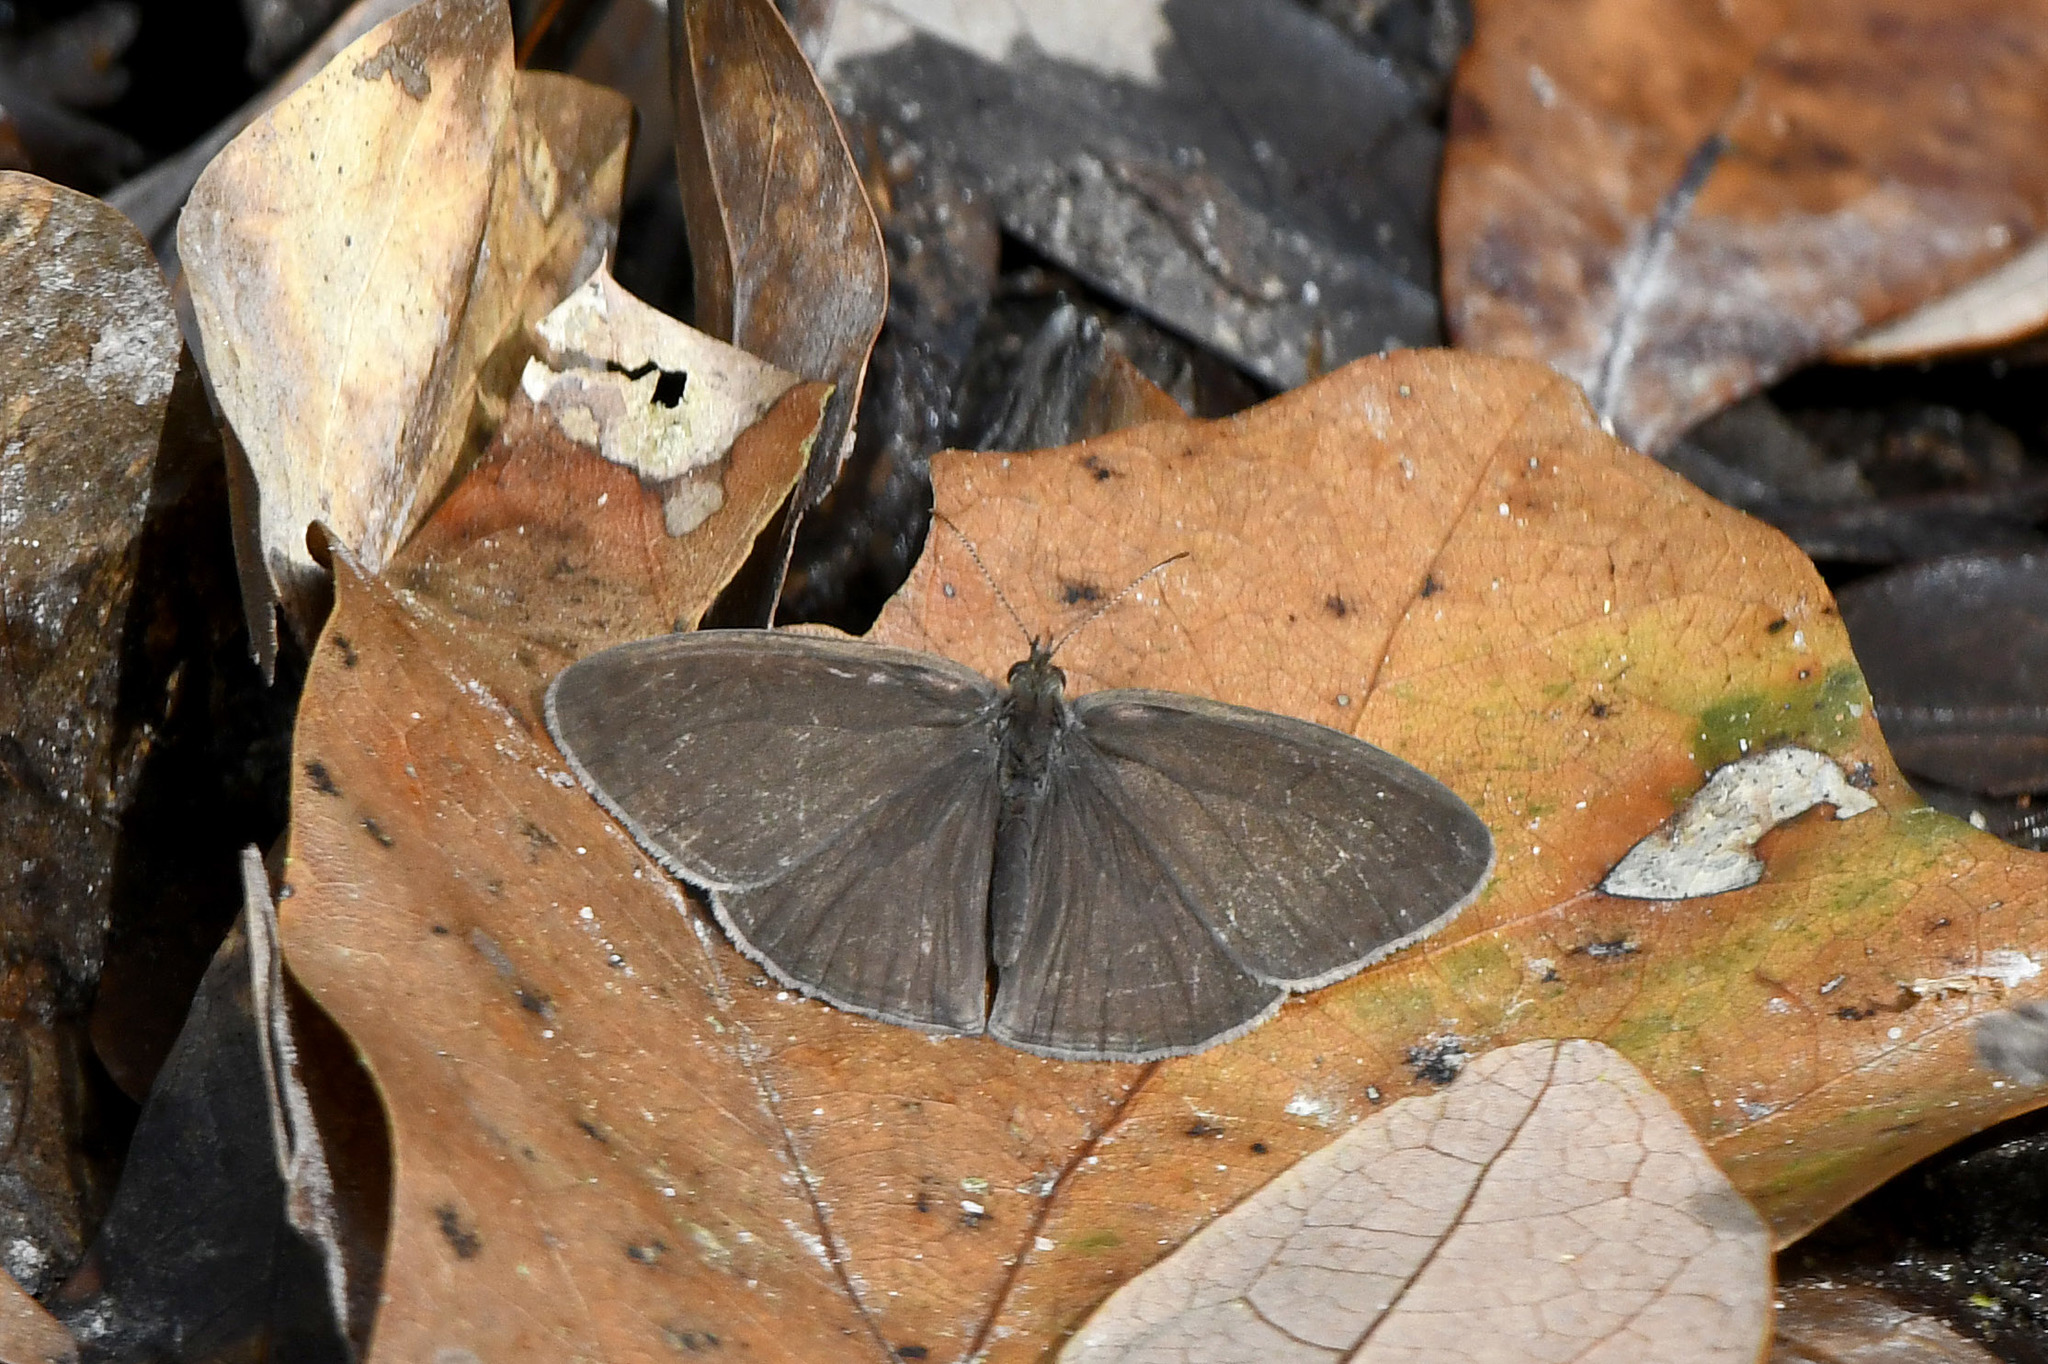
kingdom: Animalia
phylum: Arthropoda
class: Insecta
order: Lepidoptera
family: Nymphalidae
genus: Hermeuptychia
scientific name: Hermeuptychia intricata
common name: Intricate satyr
